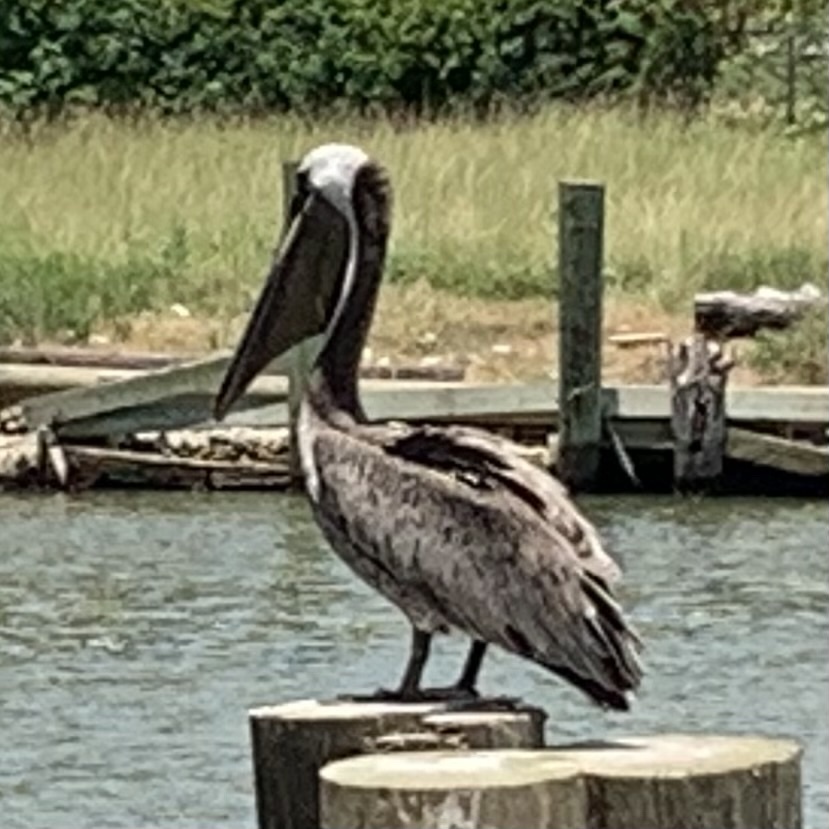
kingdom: Animalia
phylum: Chordata
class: Aves
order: Pelecaniformes
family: Pelecanidae
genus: Pelecanus
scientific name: Pelecanus occidentalis
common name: Brown pelican
